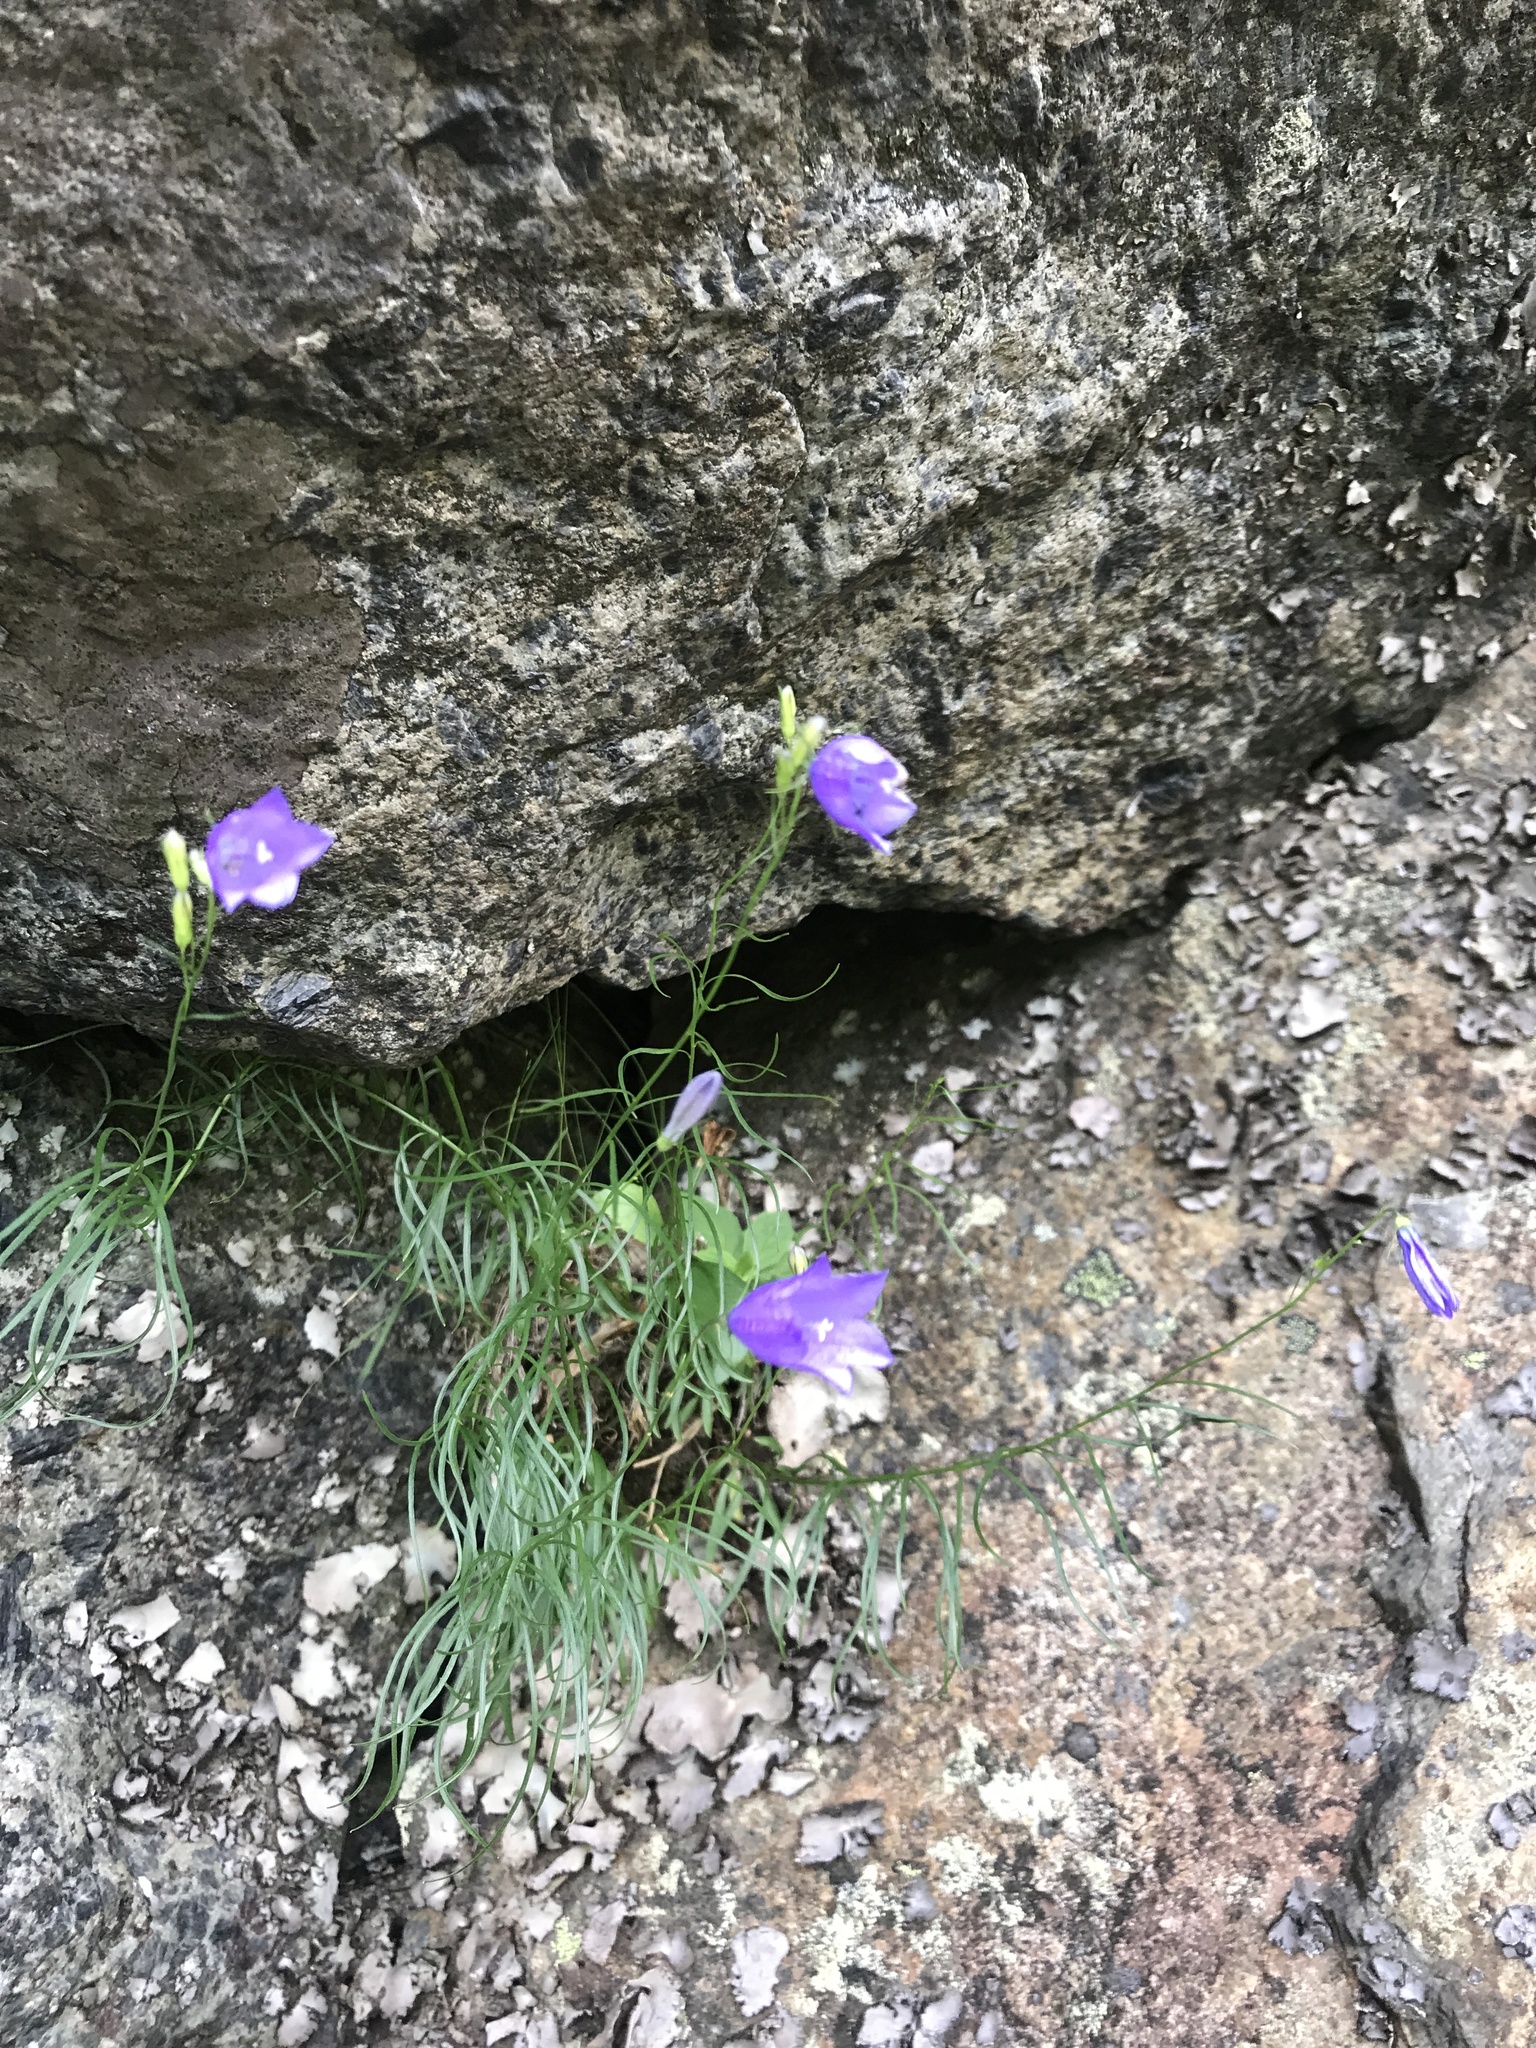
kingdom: Plantae
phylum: Tracheophyta
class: Magnoliopsida
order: Asterales
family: Campanulaceae
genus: Campanula
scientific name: Campanula intercedens
